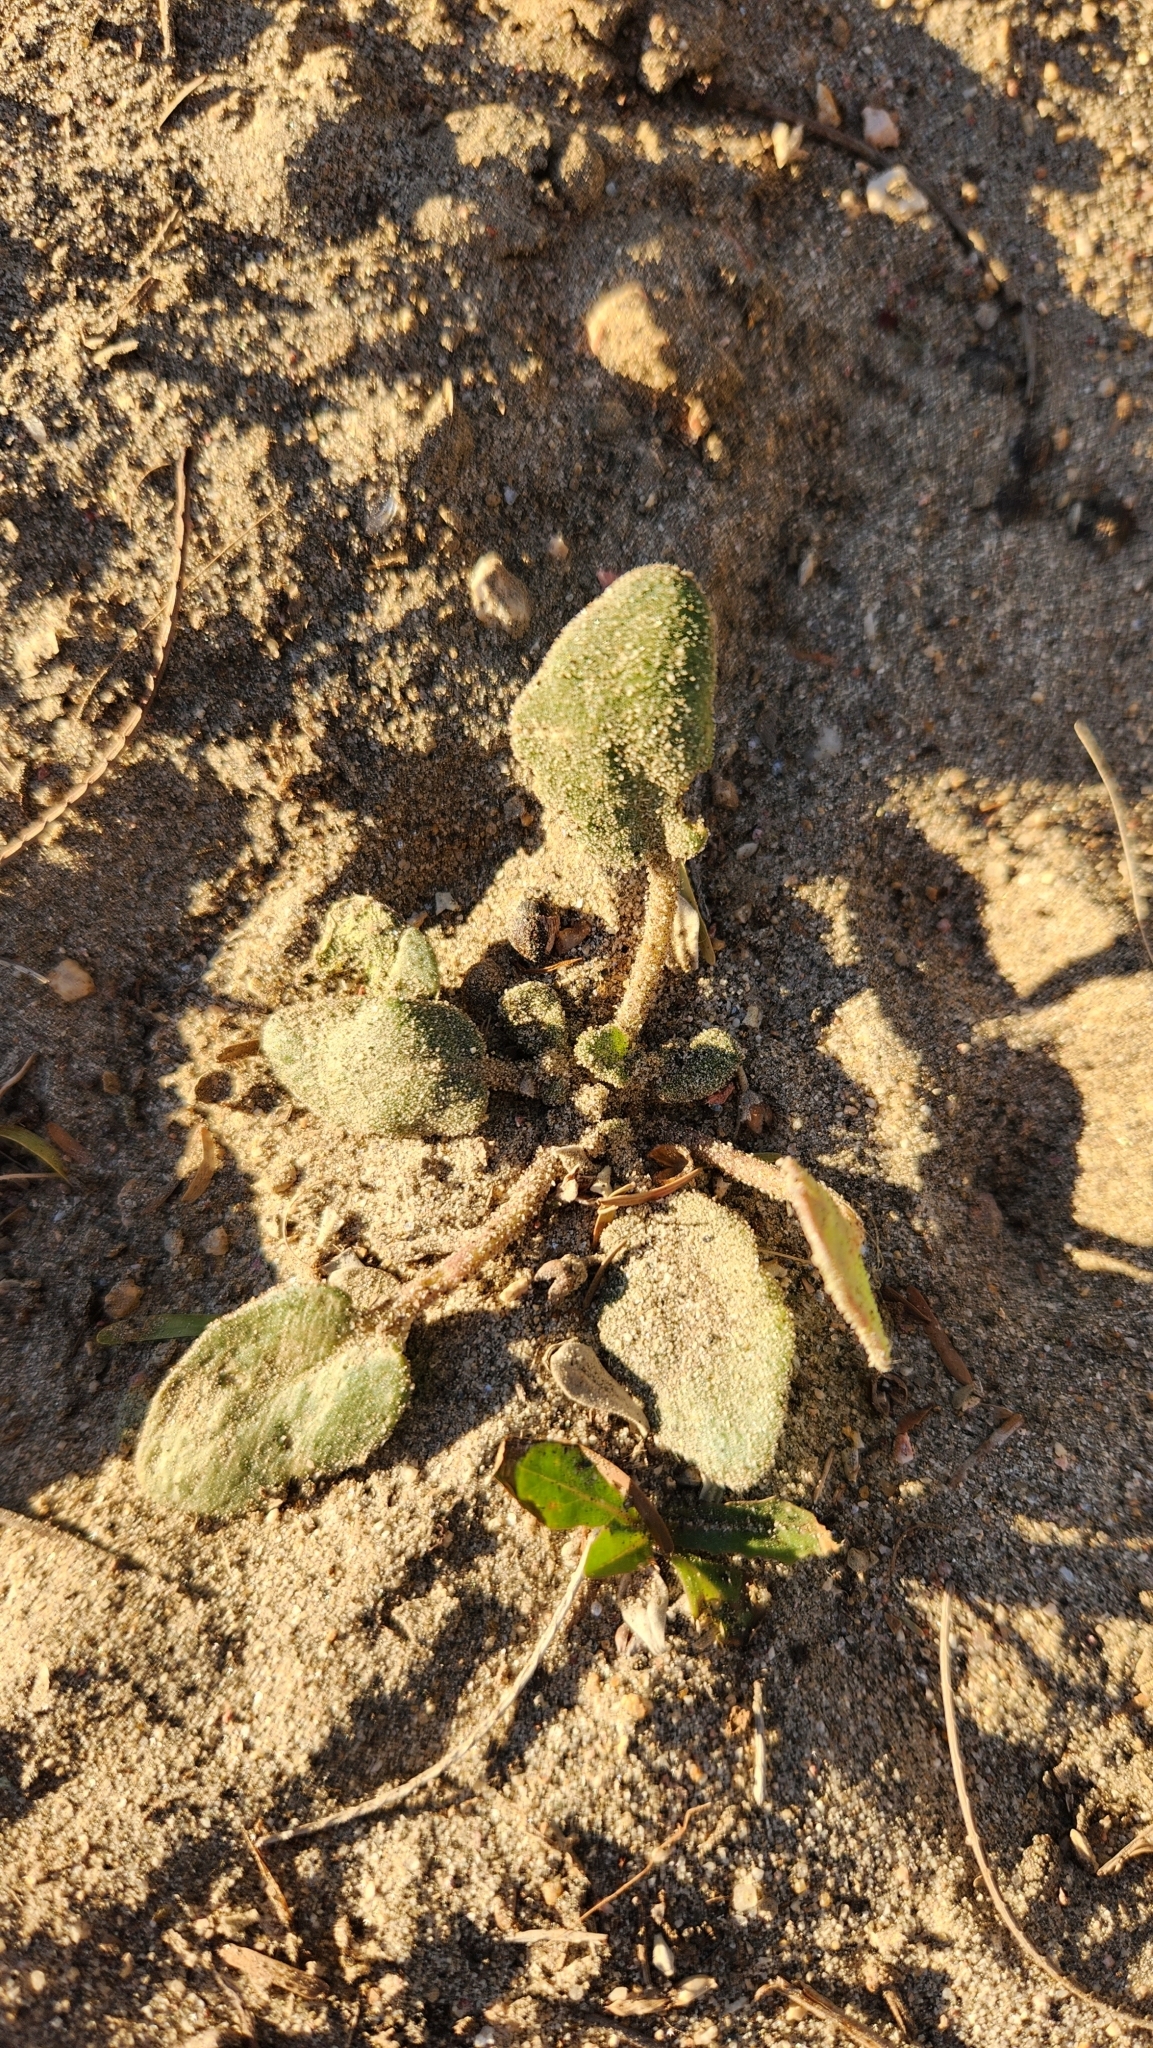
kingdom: Plantae
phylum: Tracheophyta
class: Magnoliopsida
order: Caryophyllales
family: Nyctaginaceae
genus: Abronia
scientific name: Abronia villosa
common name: Desert sand-verbena
